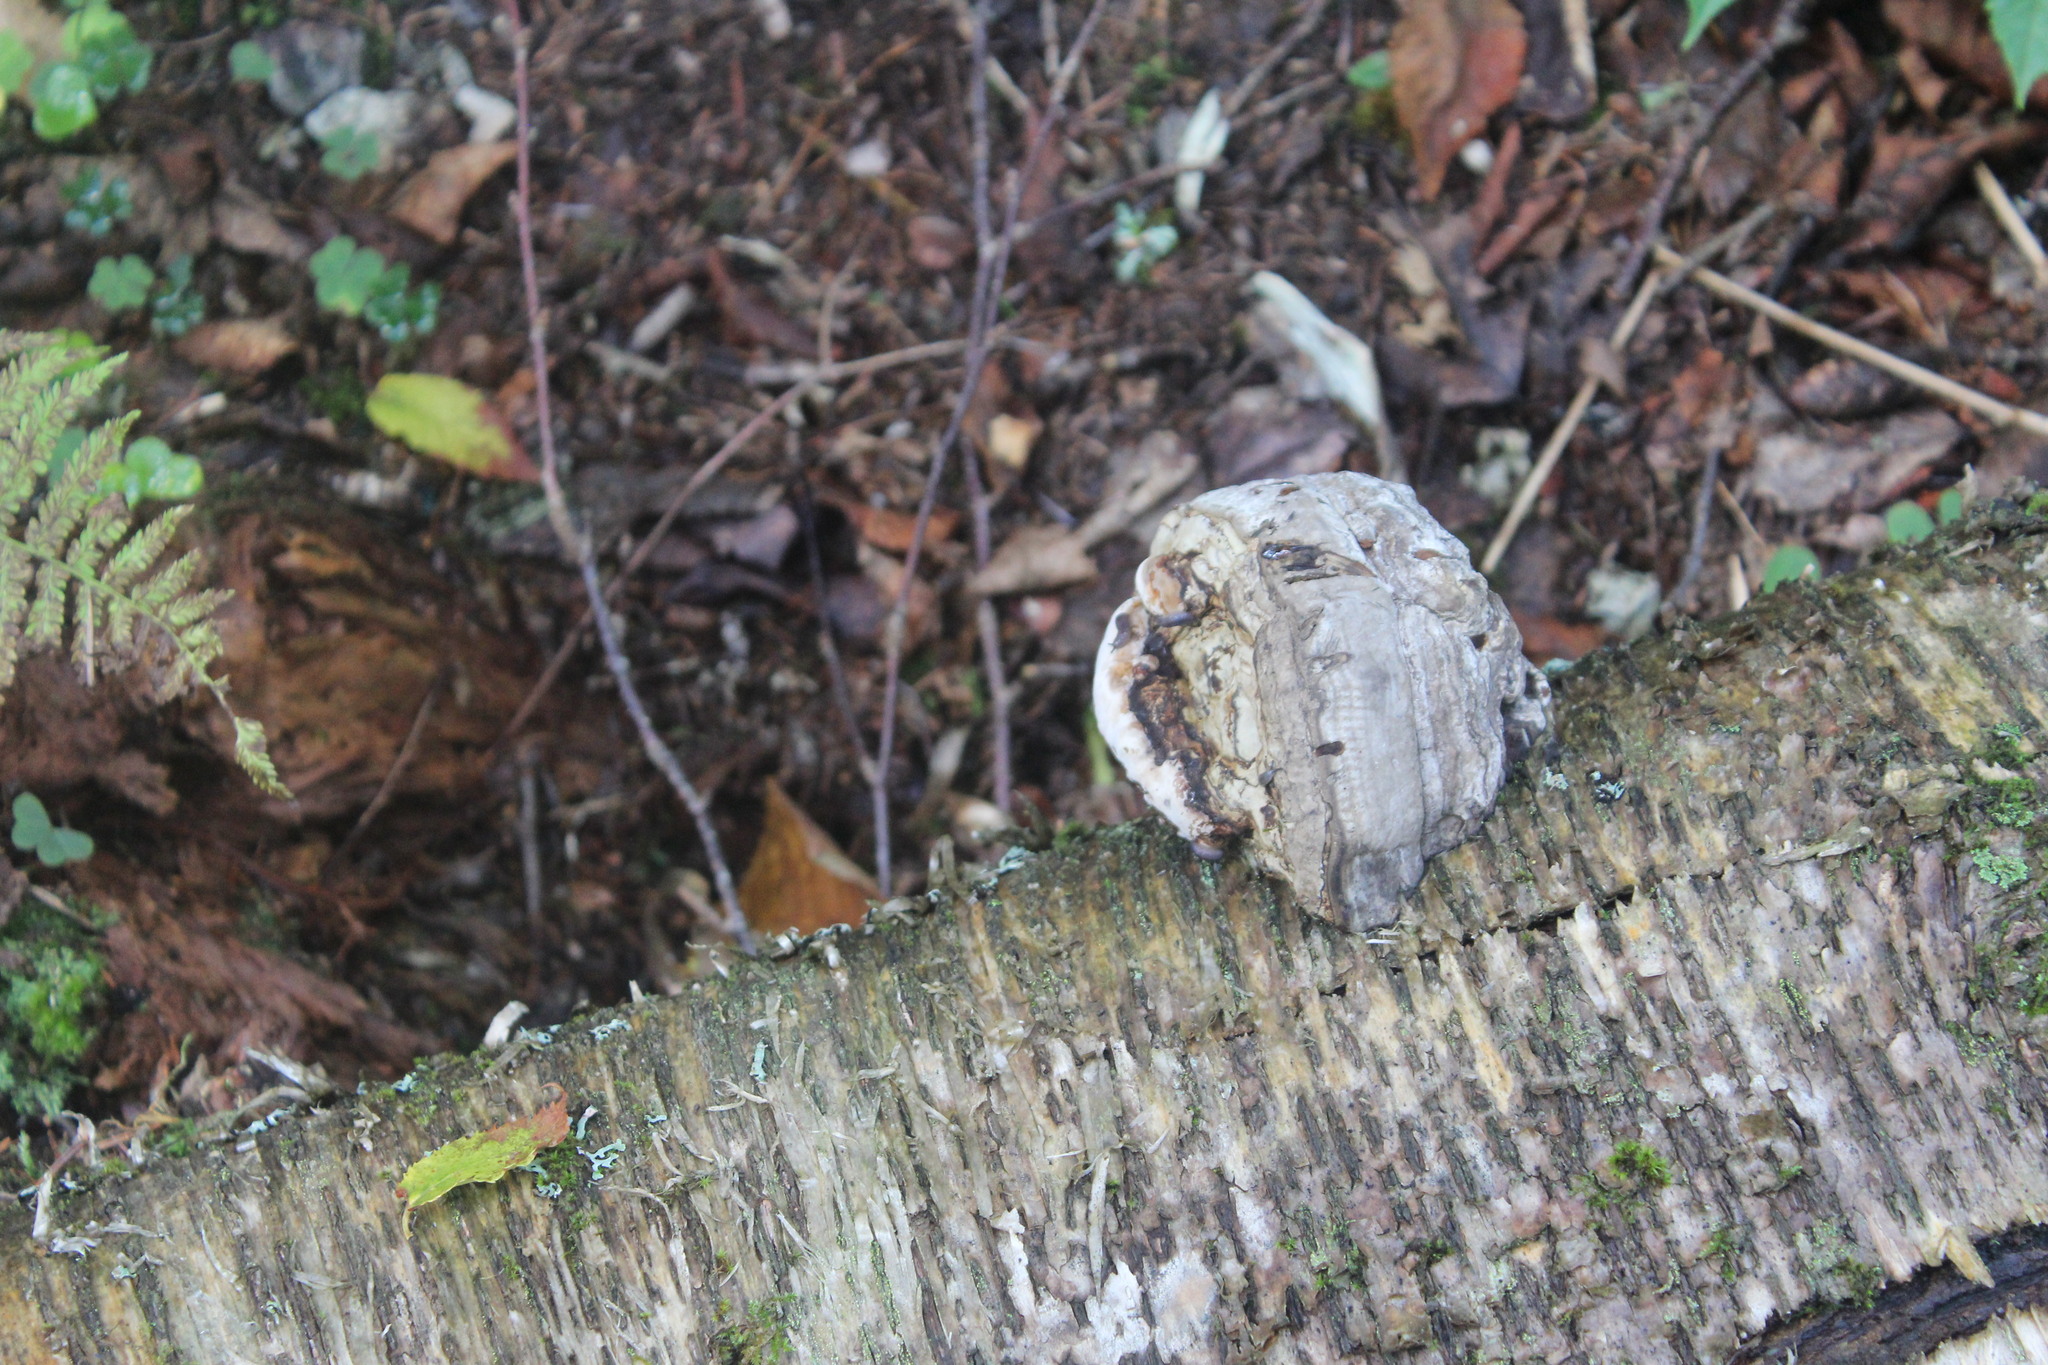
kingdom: Fungi
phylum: Basidiomycota
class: Agaricomycetes
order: Polyporales
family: Polyporaceae
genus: Fomes
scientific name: Fomes fomentarius
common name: Hoof fungus
